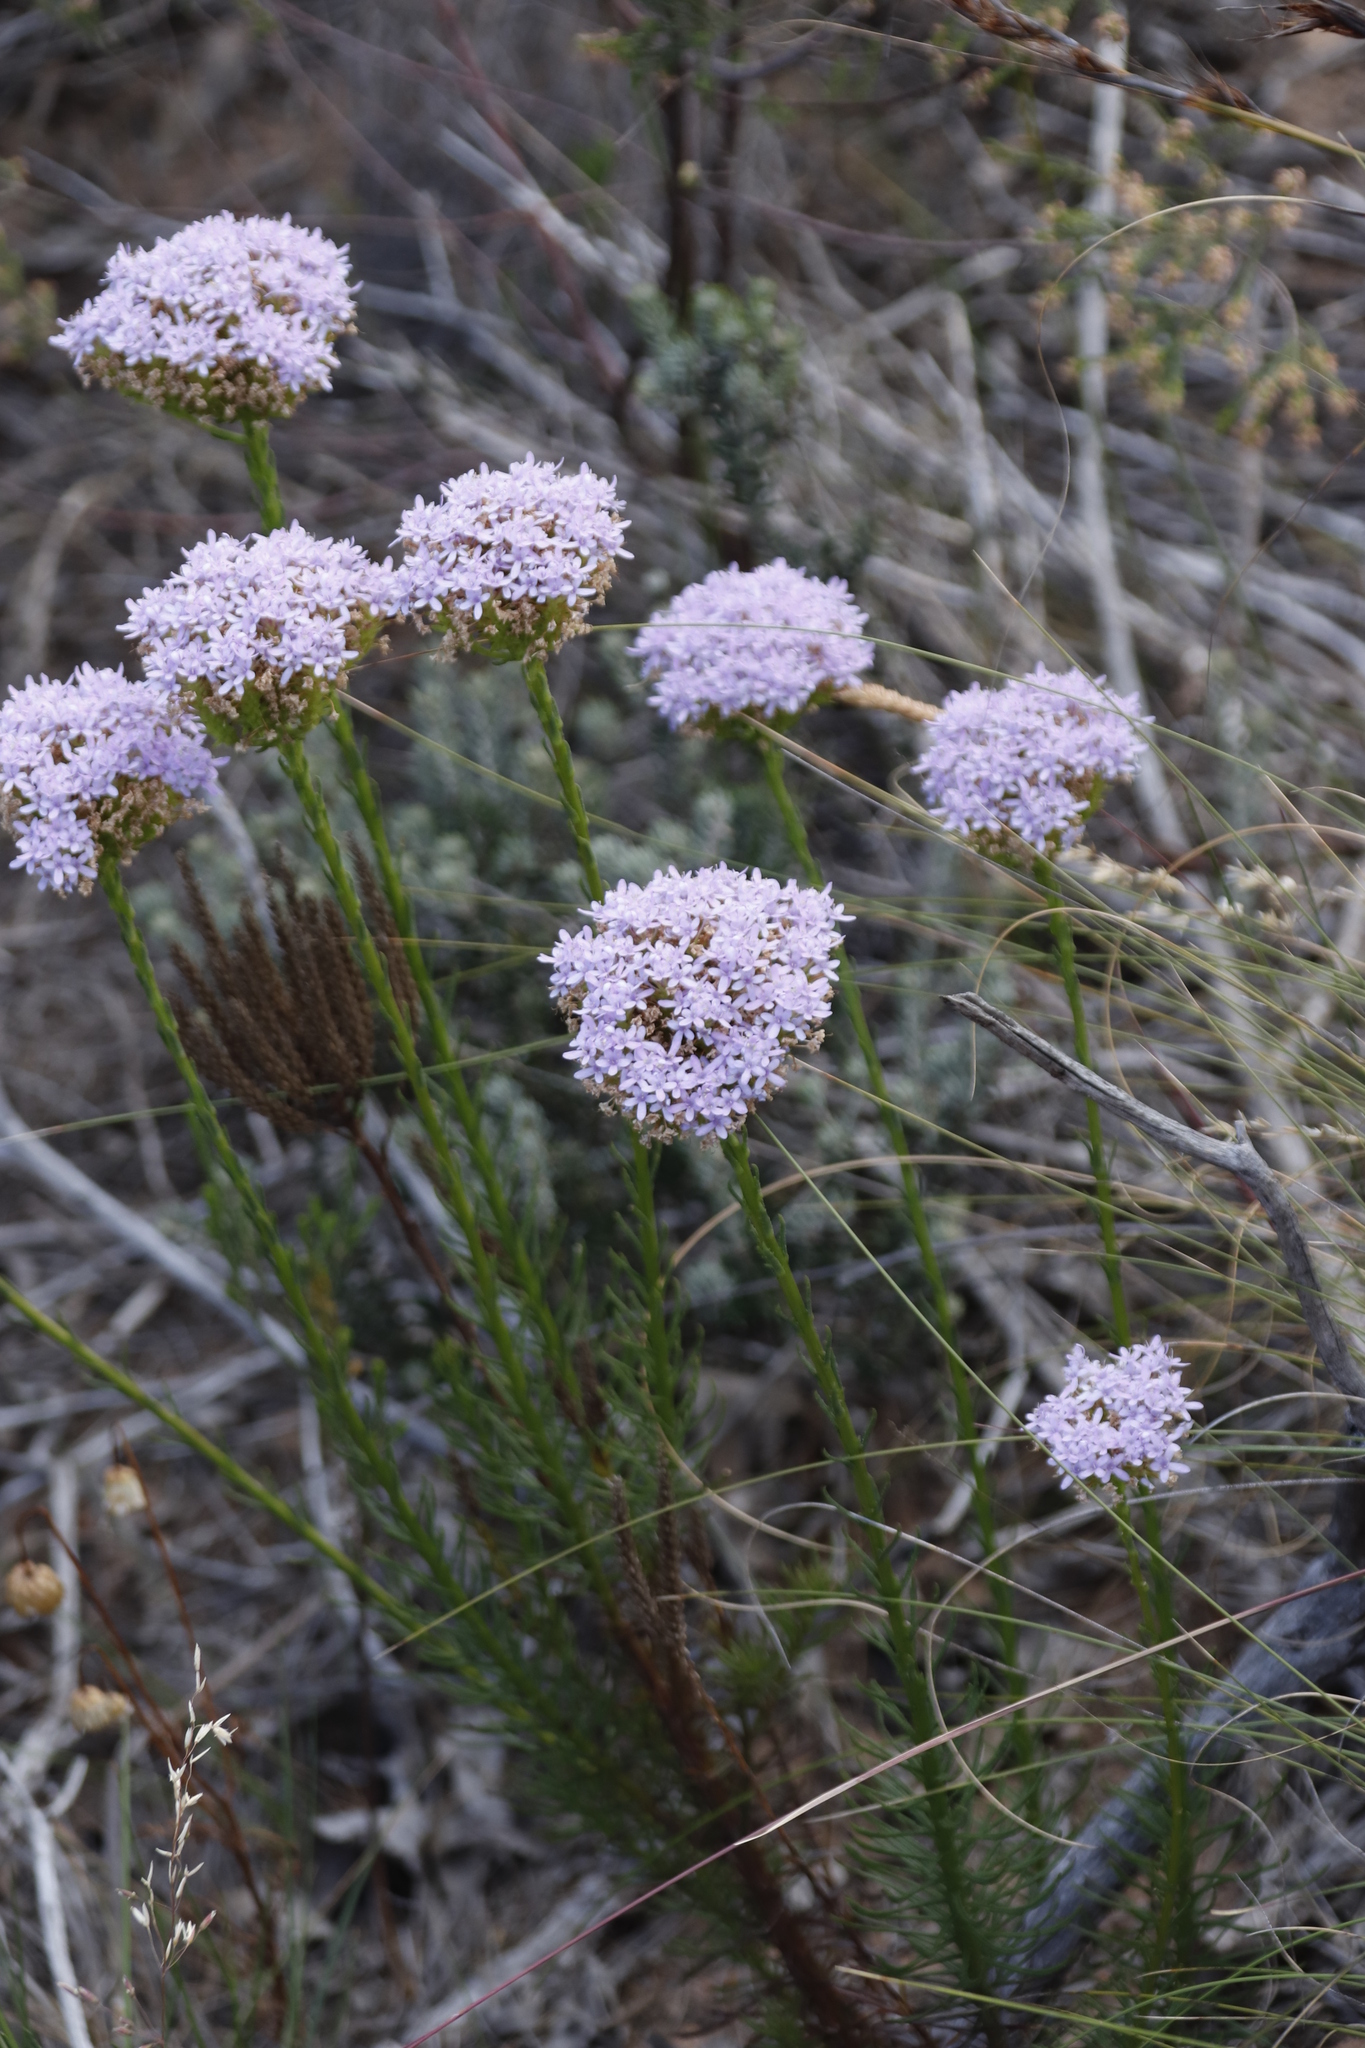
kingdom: Plantae
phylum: Tracheophyta
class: Magnoliopsida
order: Lamiales
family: Scrophulariaceae
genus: Pseudoselago
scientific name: Pseudoselago spuria
